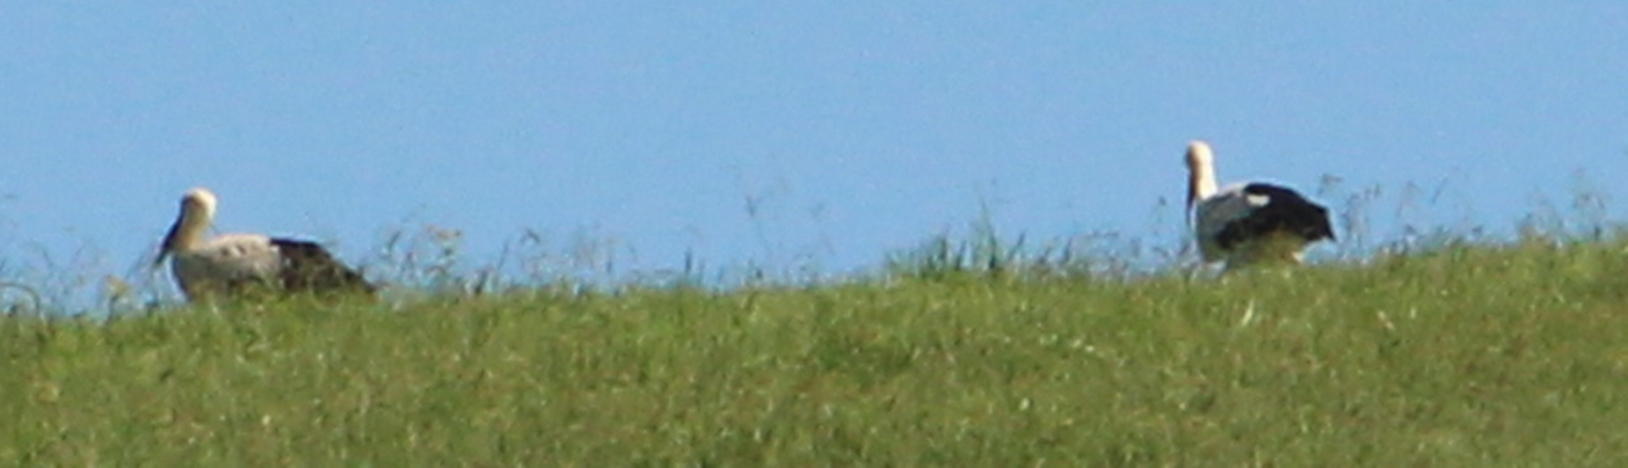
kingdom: Animalia
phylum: Chordata
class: Aves
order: Ciconiiformes
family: Ciconiidae
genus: Ciconia
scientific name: Ciconia ciconia
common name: White stork
